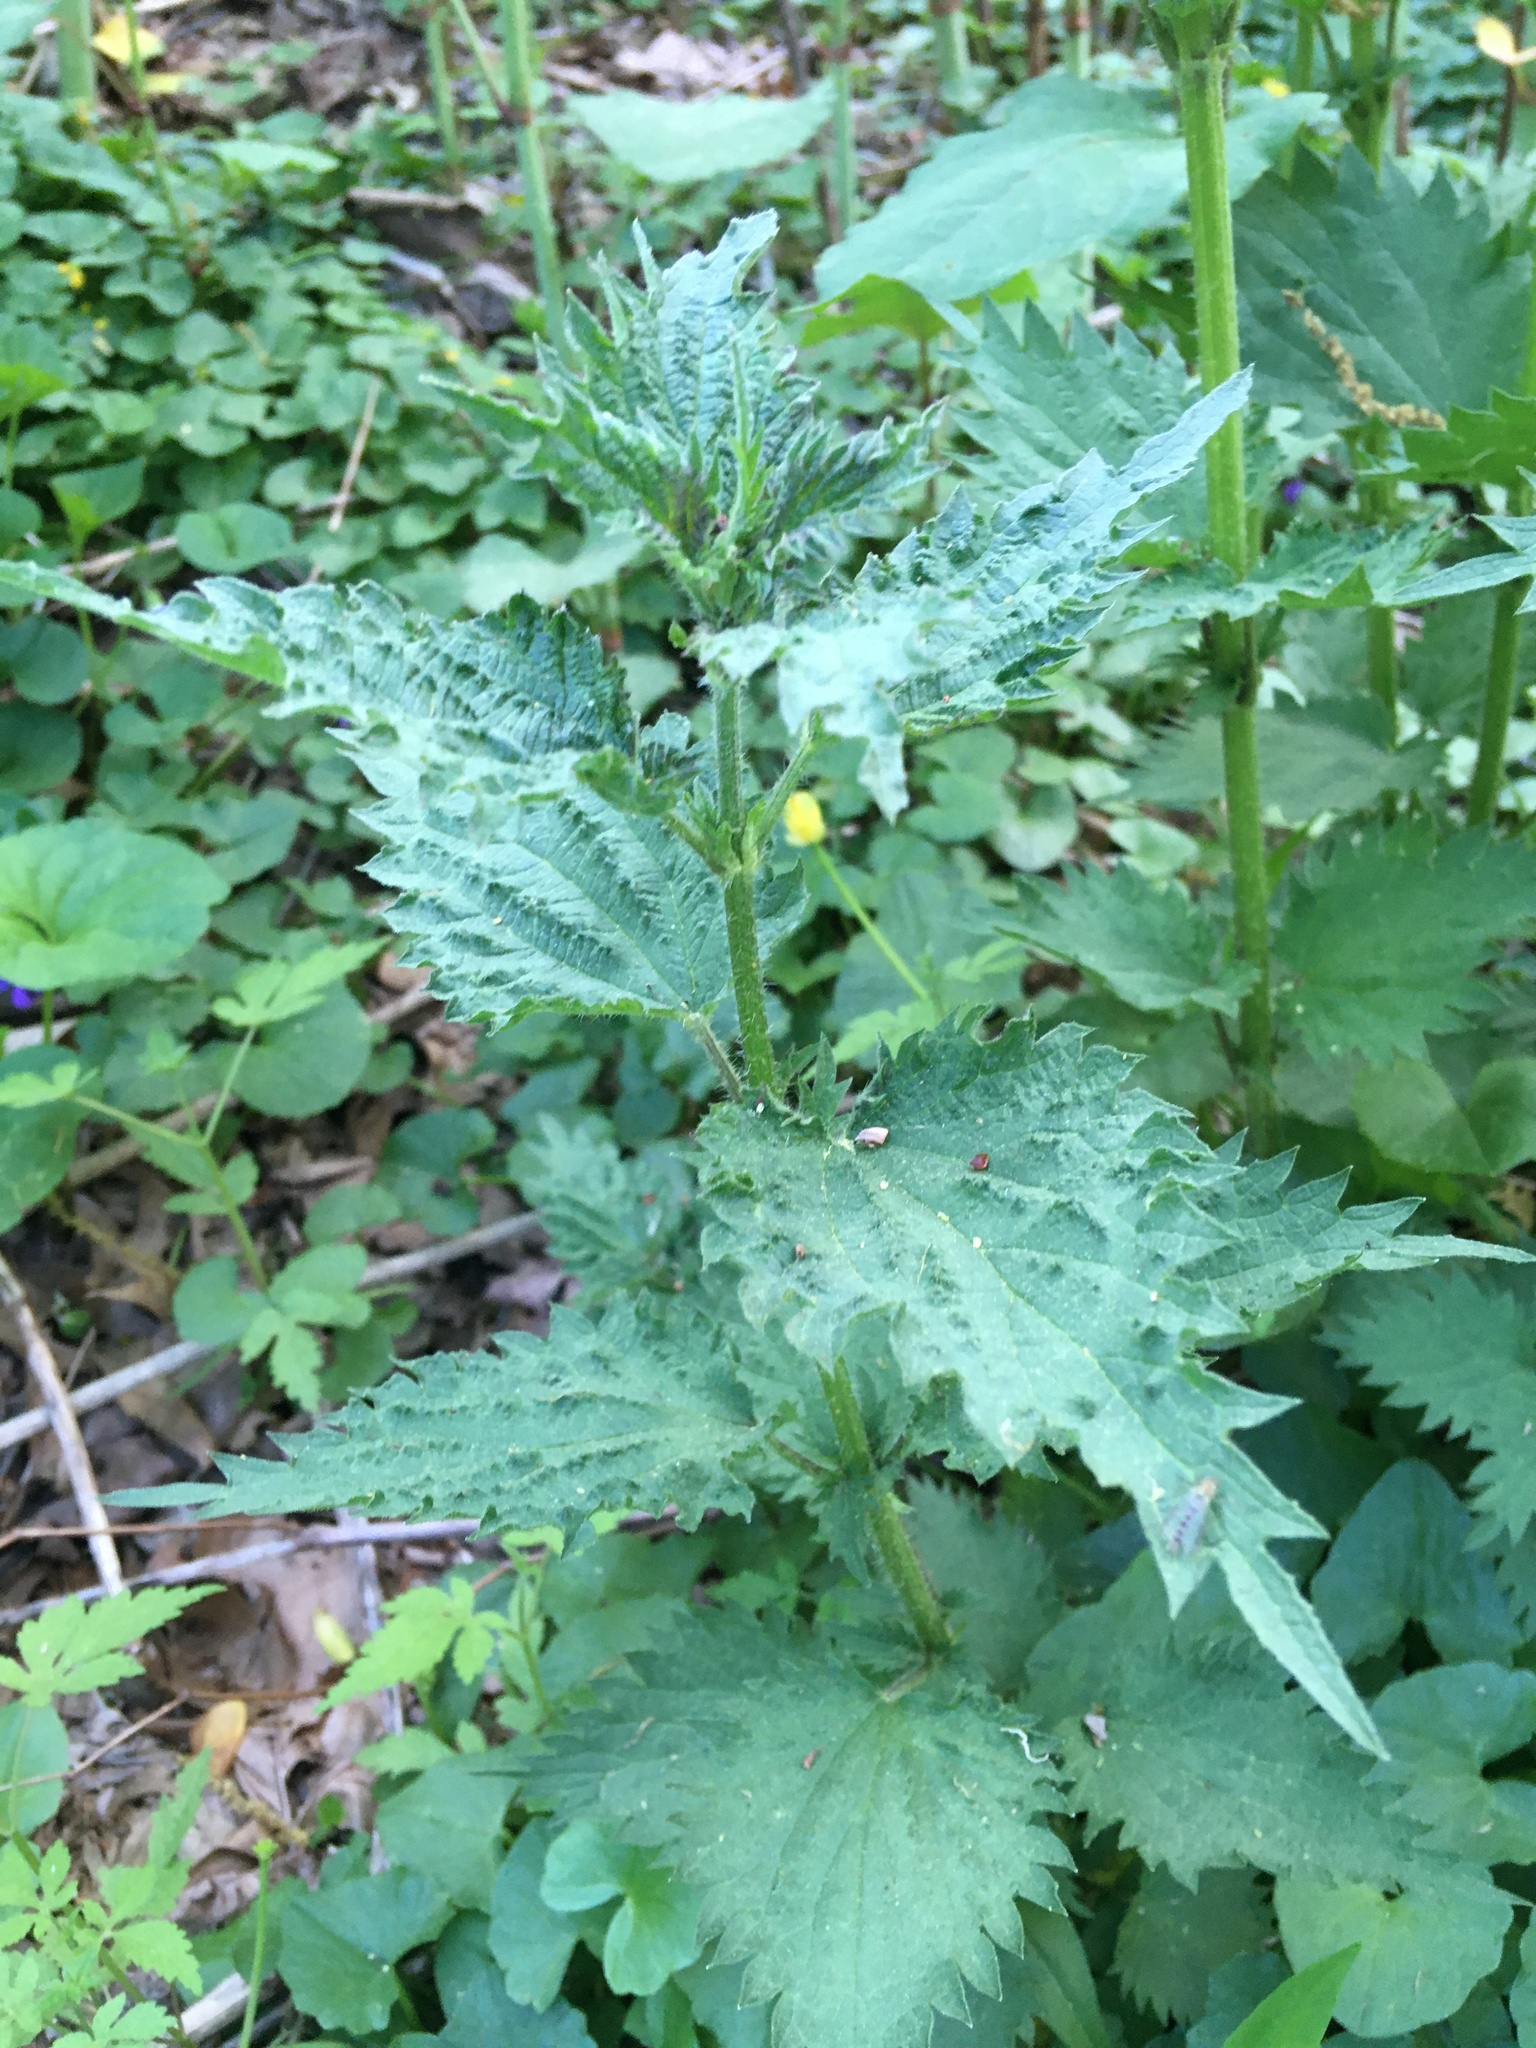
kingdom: Plantae
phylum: Tracheophyta
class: Magnoliopsida
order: Rosales
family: Urticaceae
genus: Urtica
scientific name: Urtica dioica
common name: Common nettle
